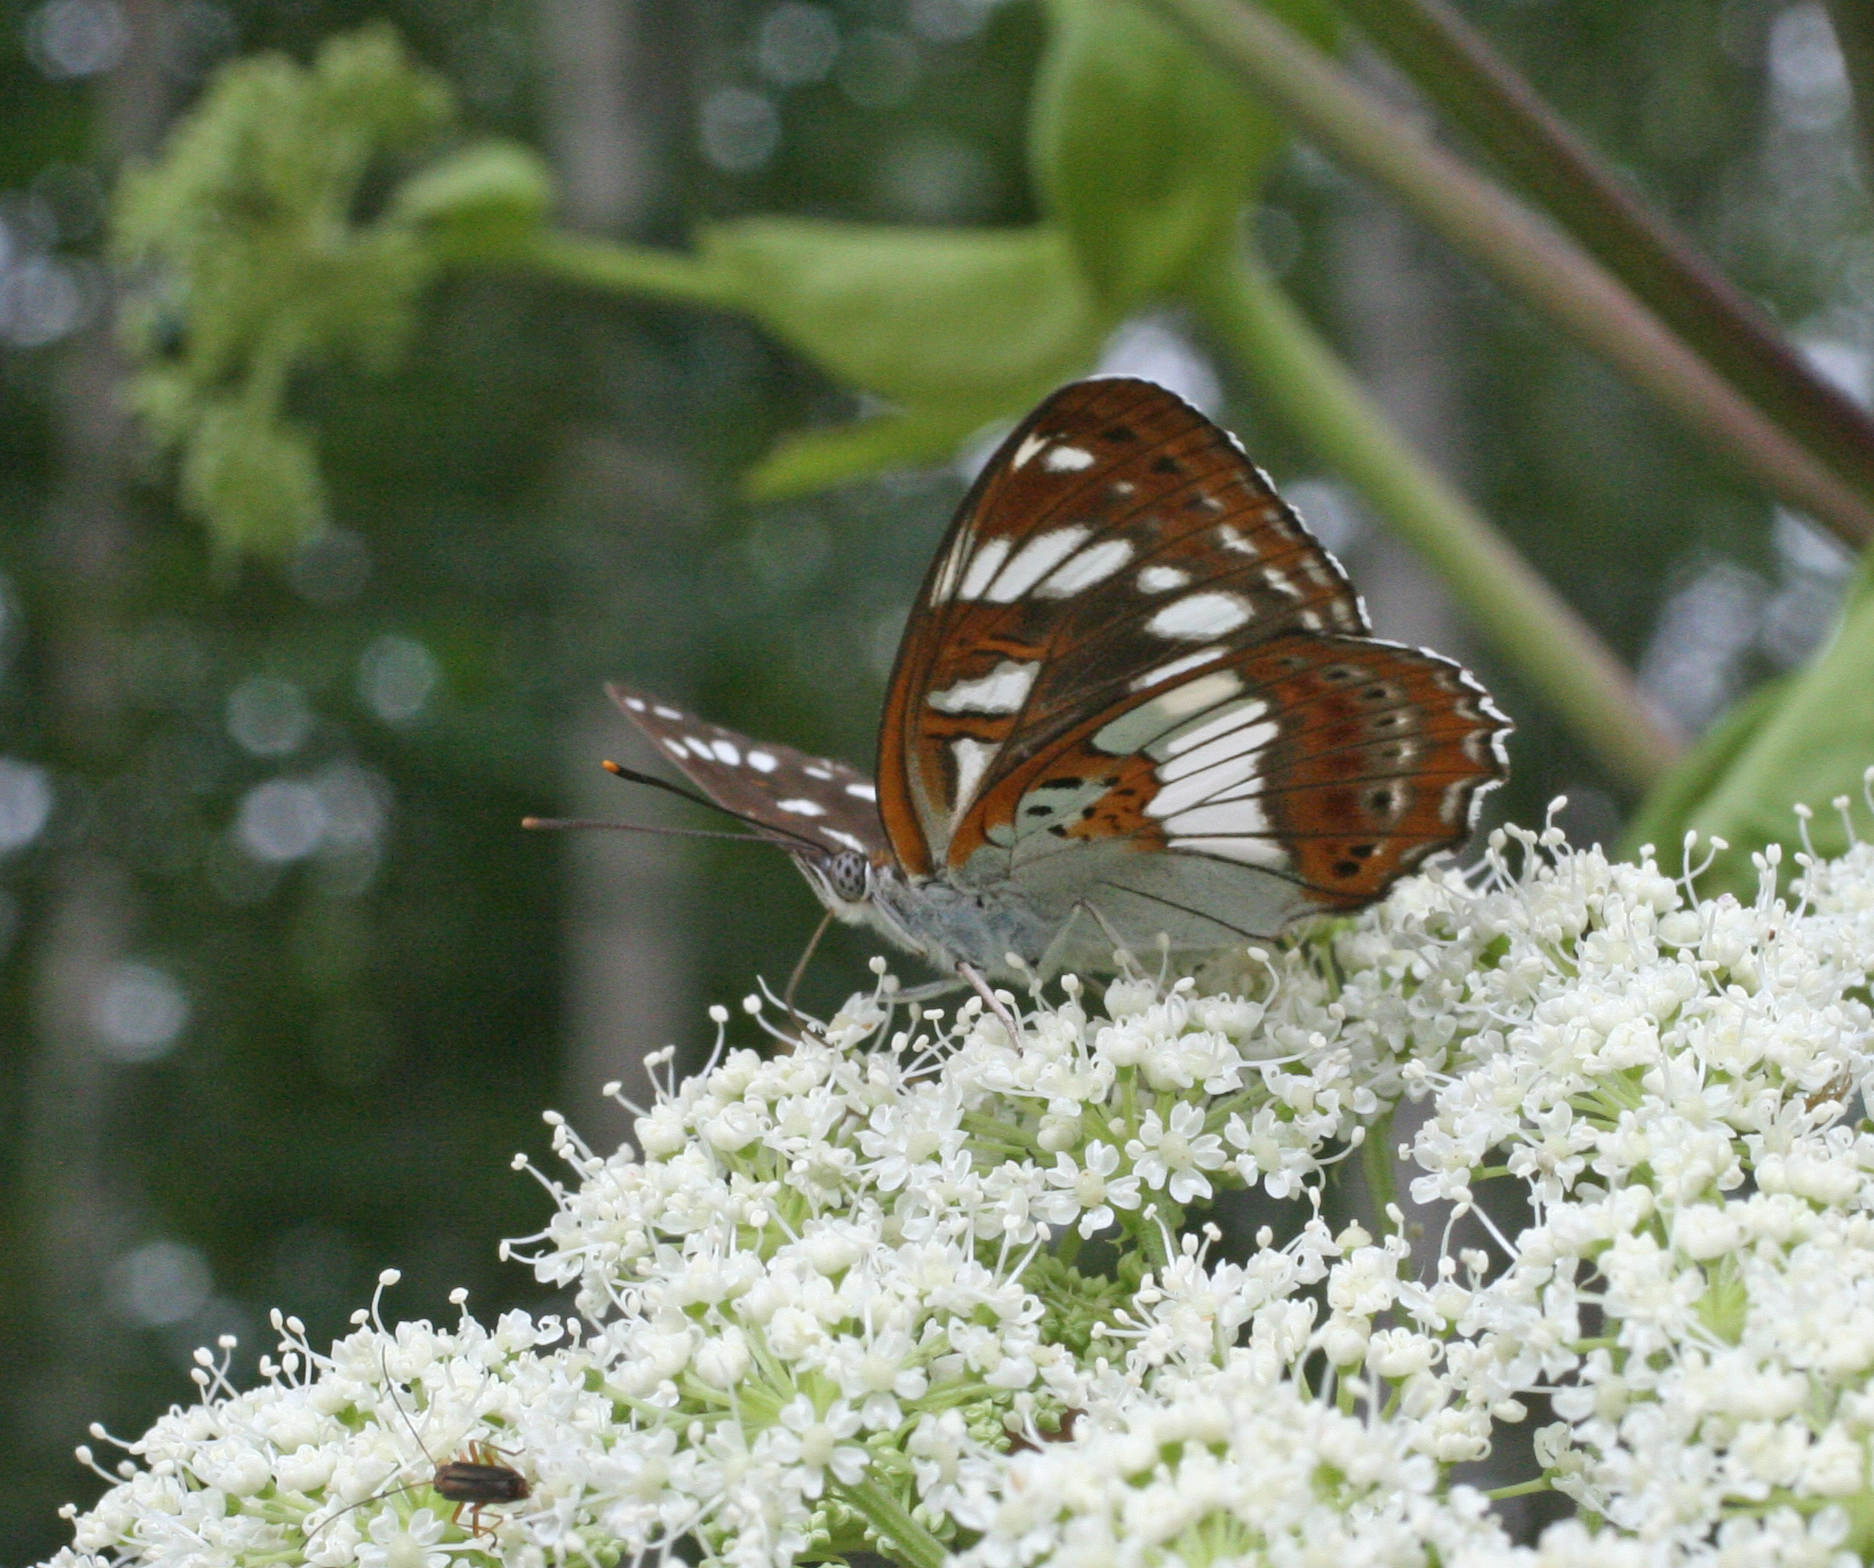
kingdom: Animalia
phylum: Arthropoda
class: Insecta
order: Lepidoptera
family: Nymphalidae
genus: Limenitis
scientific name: Limenitis doerriesi
